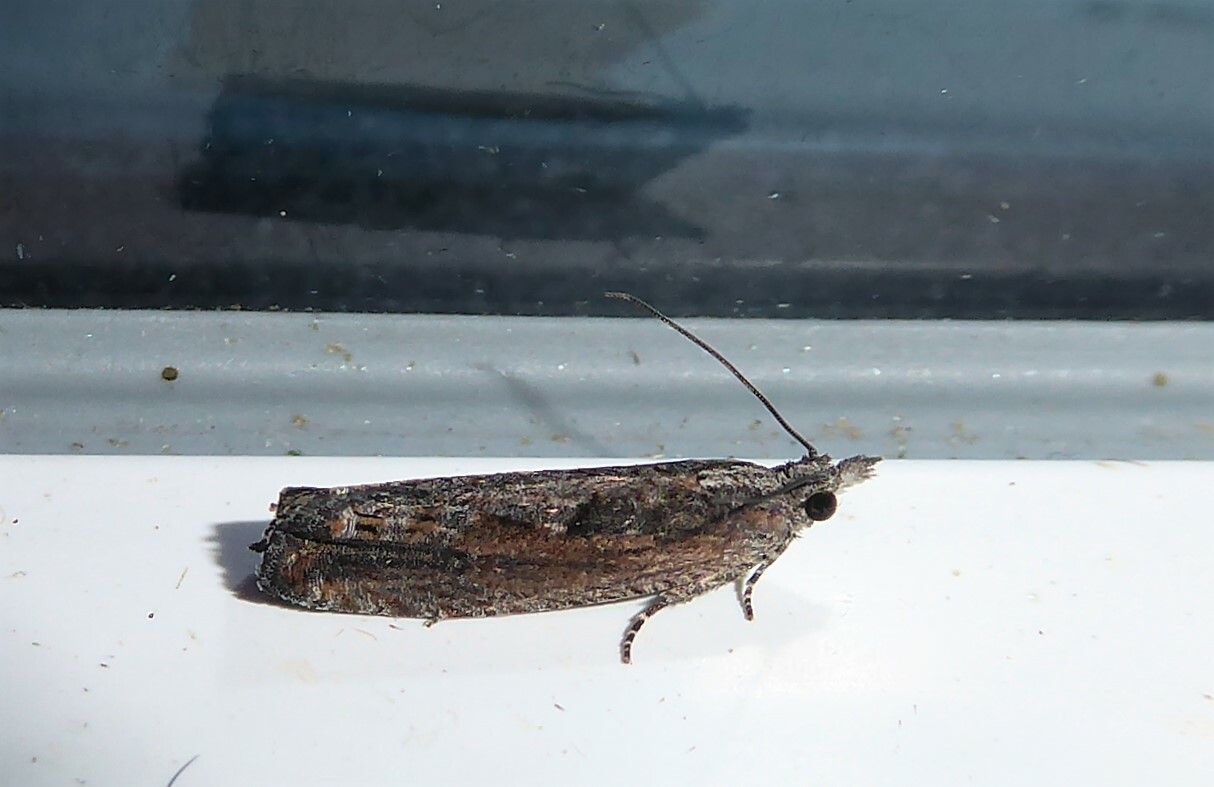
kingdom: Animalia
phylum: Arthropoda
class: Insecta
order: Lepidoptera
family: Tortricidae
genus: Strepsicrates
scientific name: Strepsicrates macropetana
